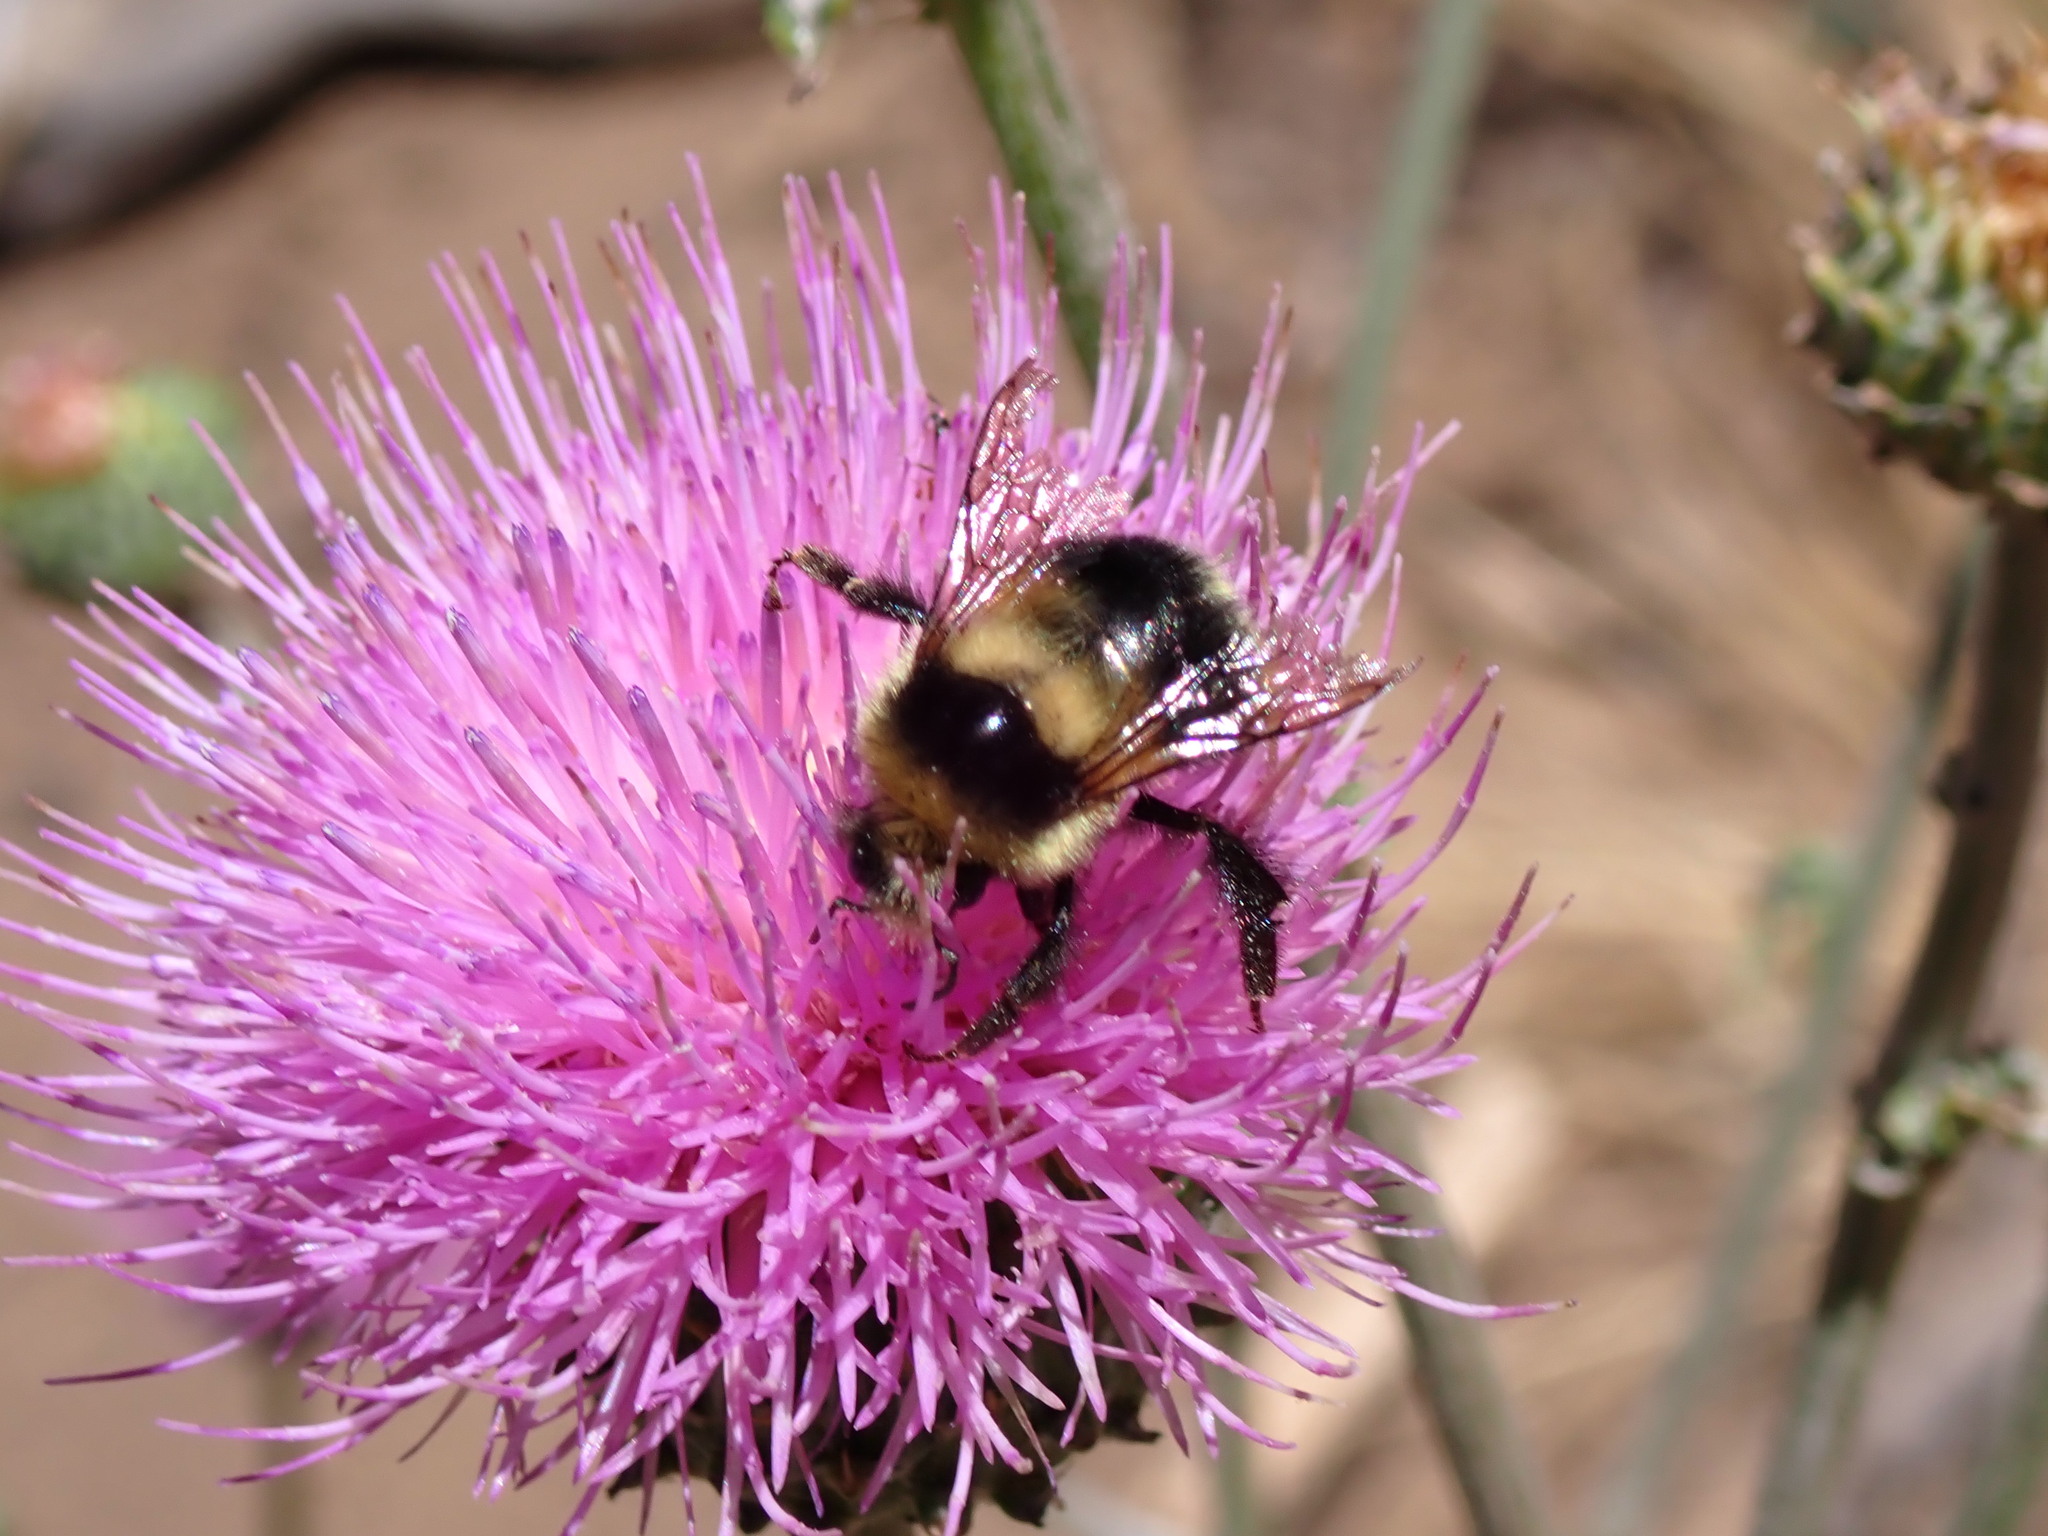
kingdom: Animalia
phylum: Arthropoda
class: Insecta
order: Hymenoptera
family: Apidae
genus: Bombus
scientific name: Bombus melanopygus
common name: Black tail bumble bee
